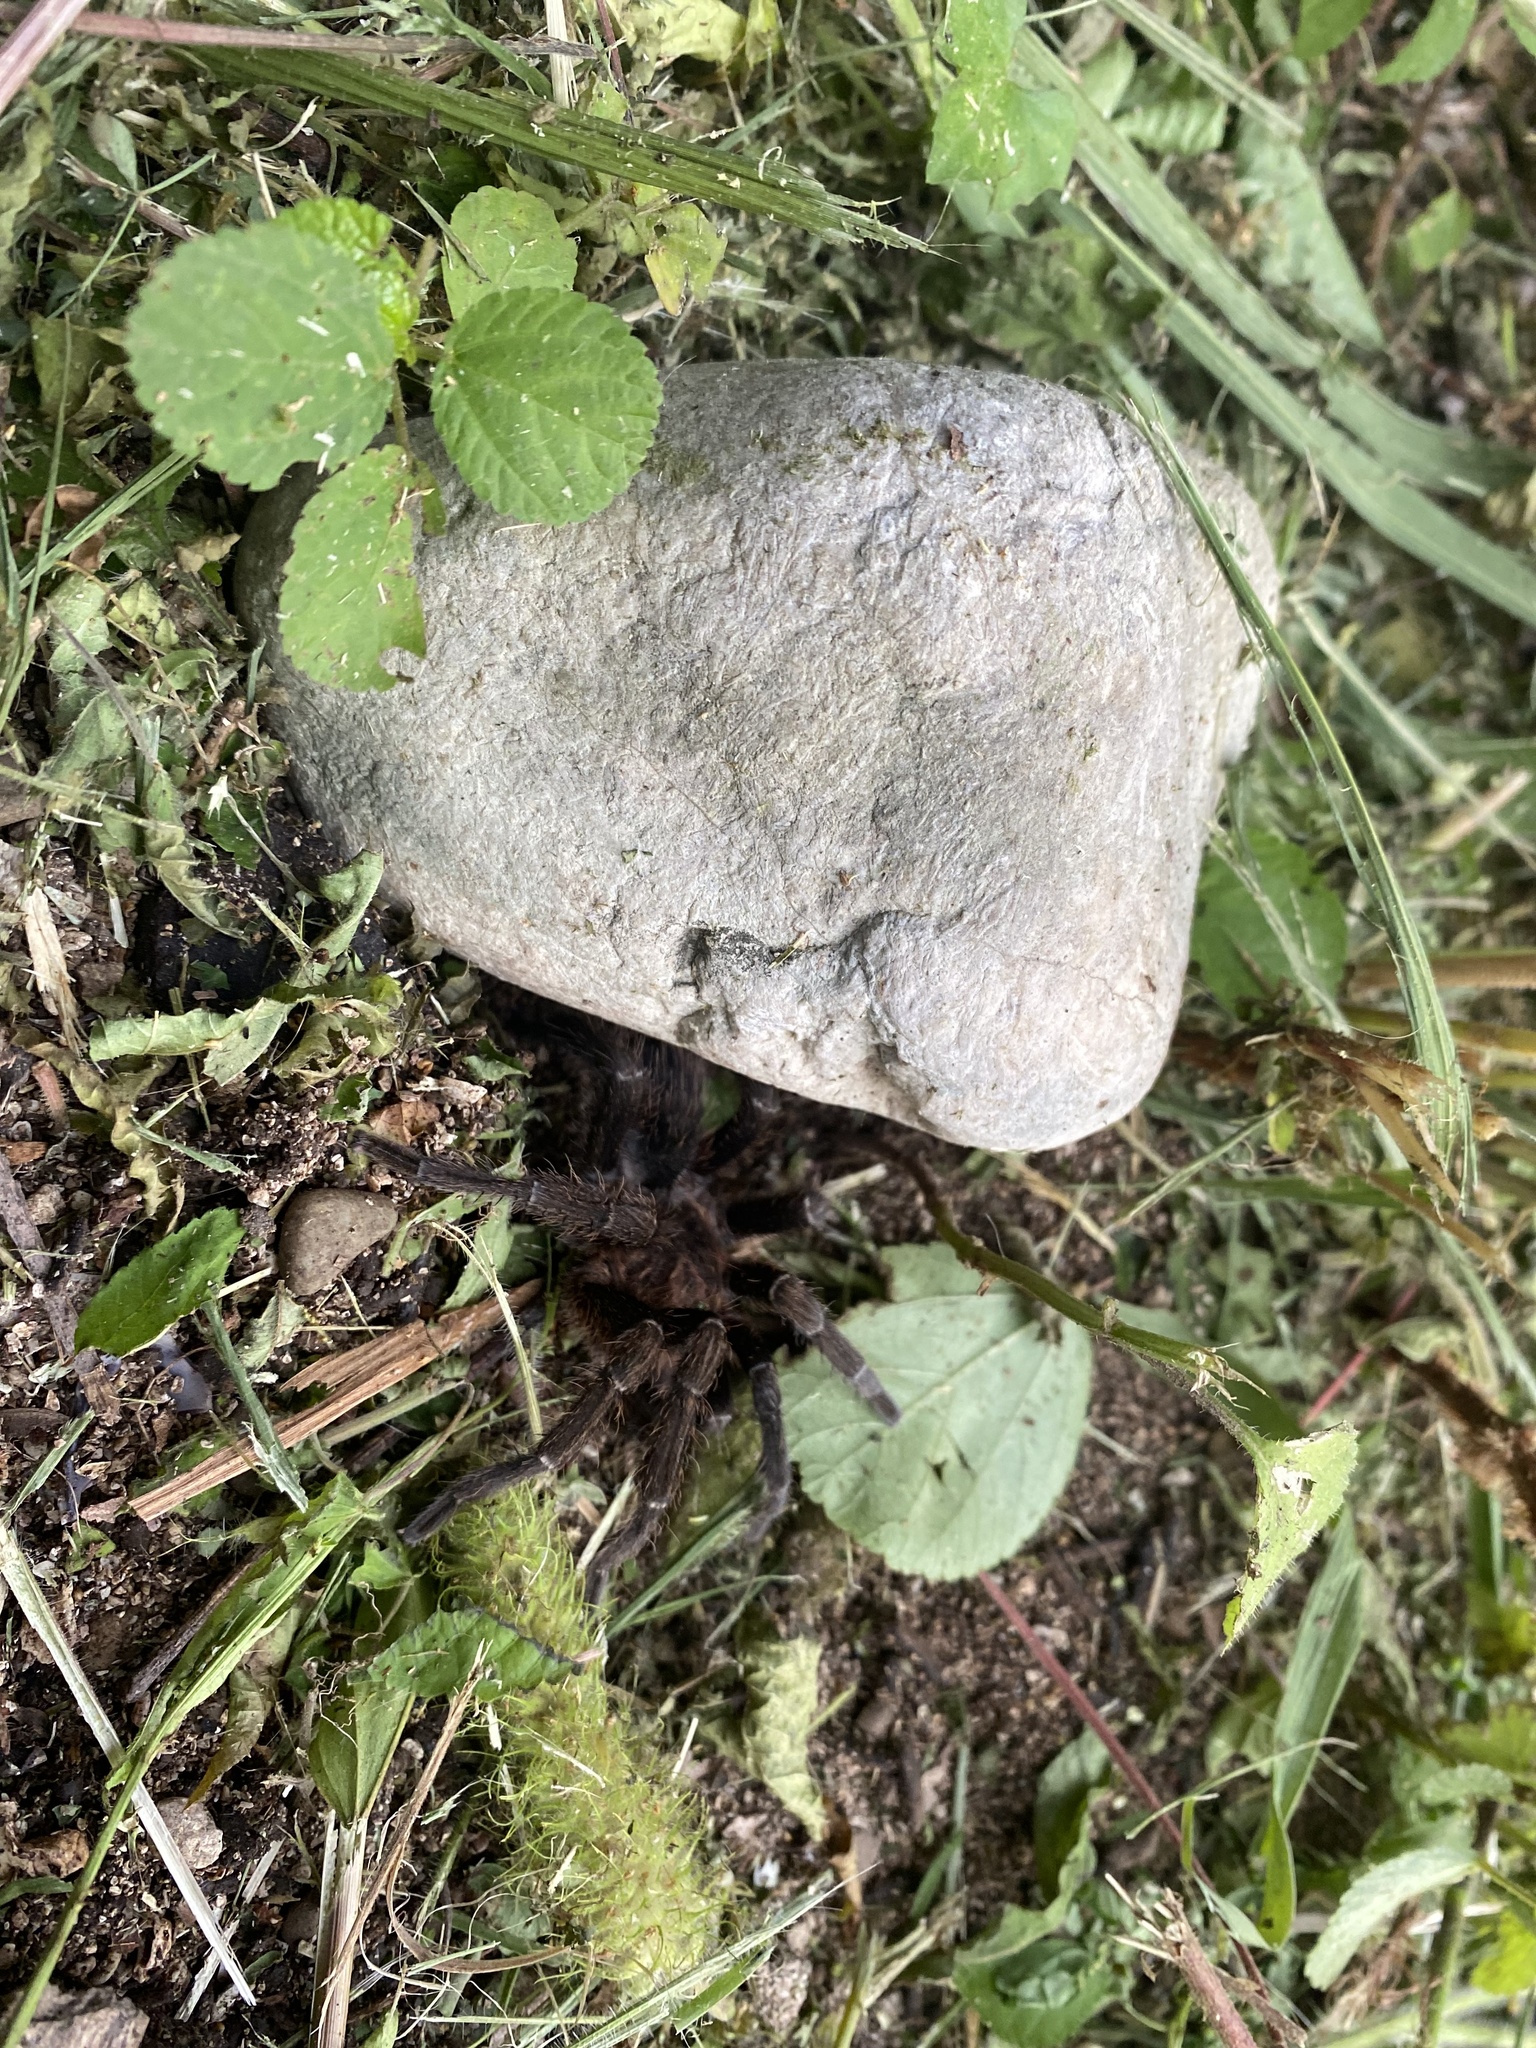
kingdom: Animalia
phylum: Arthropoda
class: Arachnida
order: Araneae
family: Theraphosidae
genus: Aphonopelma
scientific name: Aphonopelma seemanni
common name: Tarantula spiders
